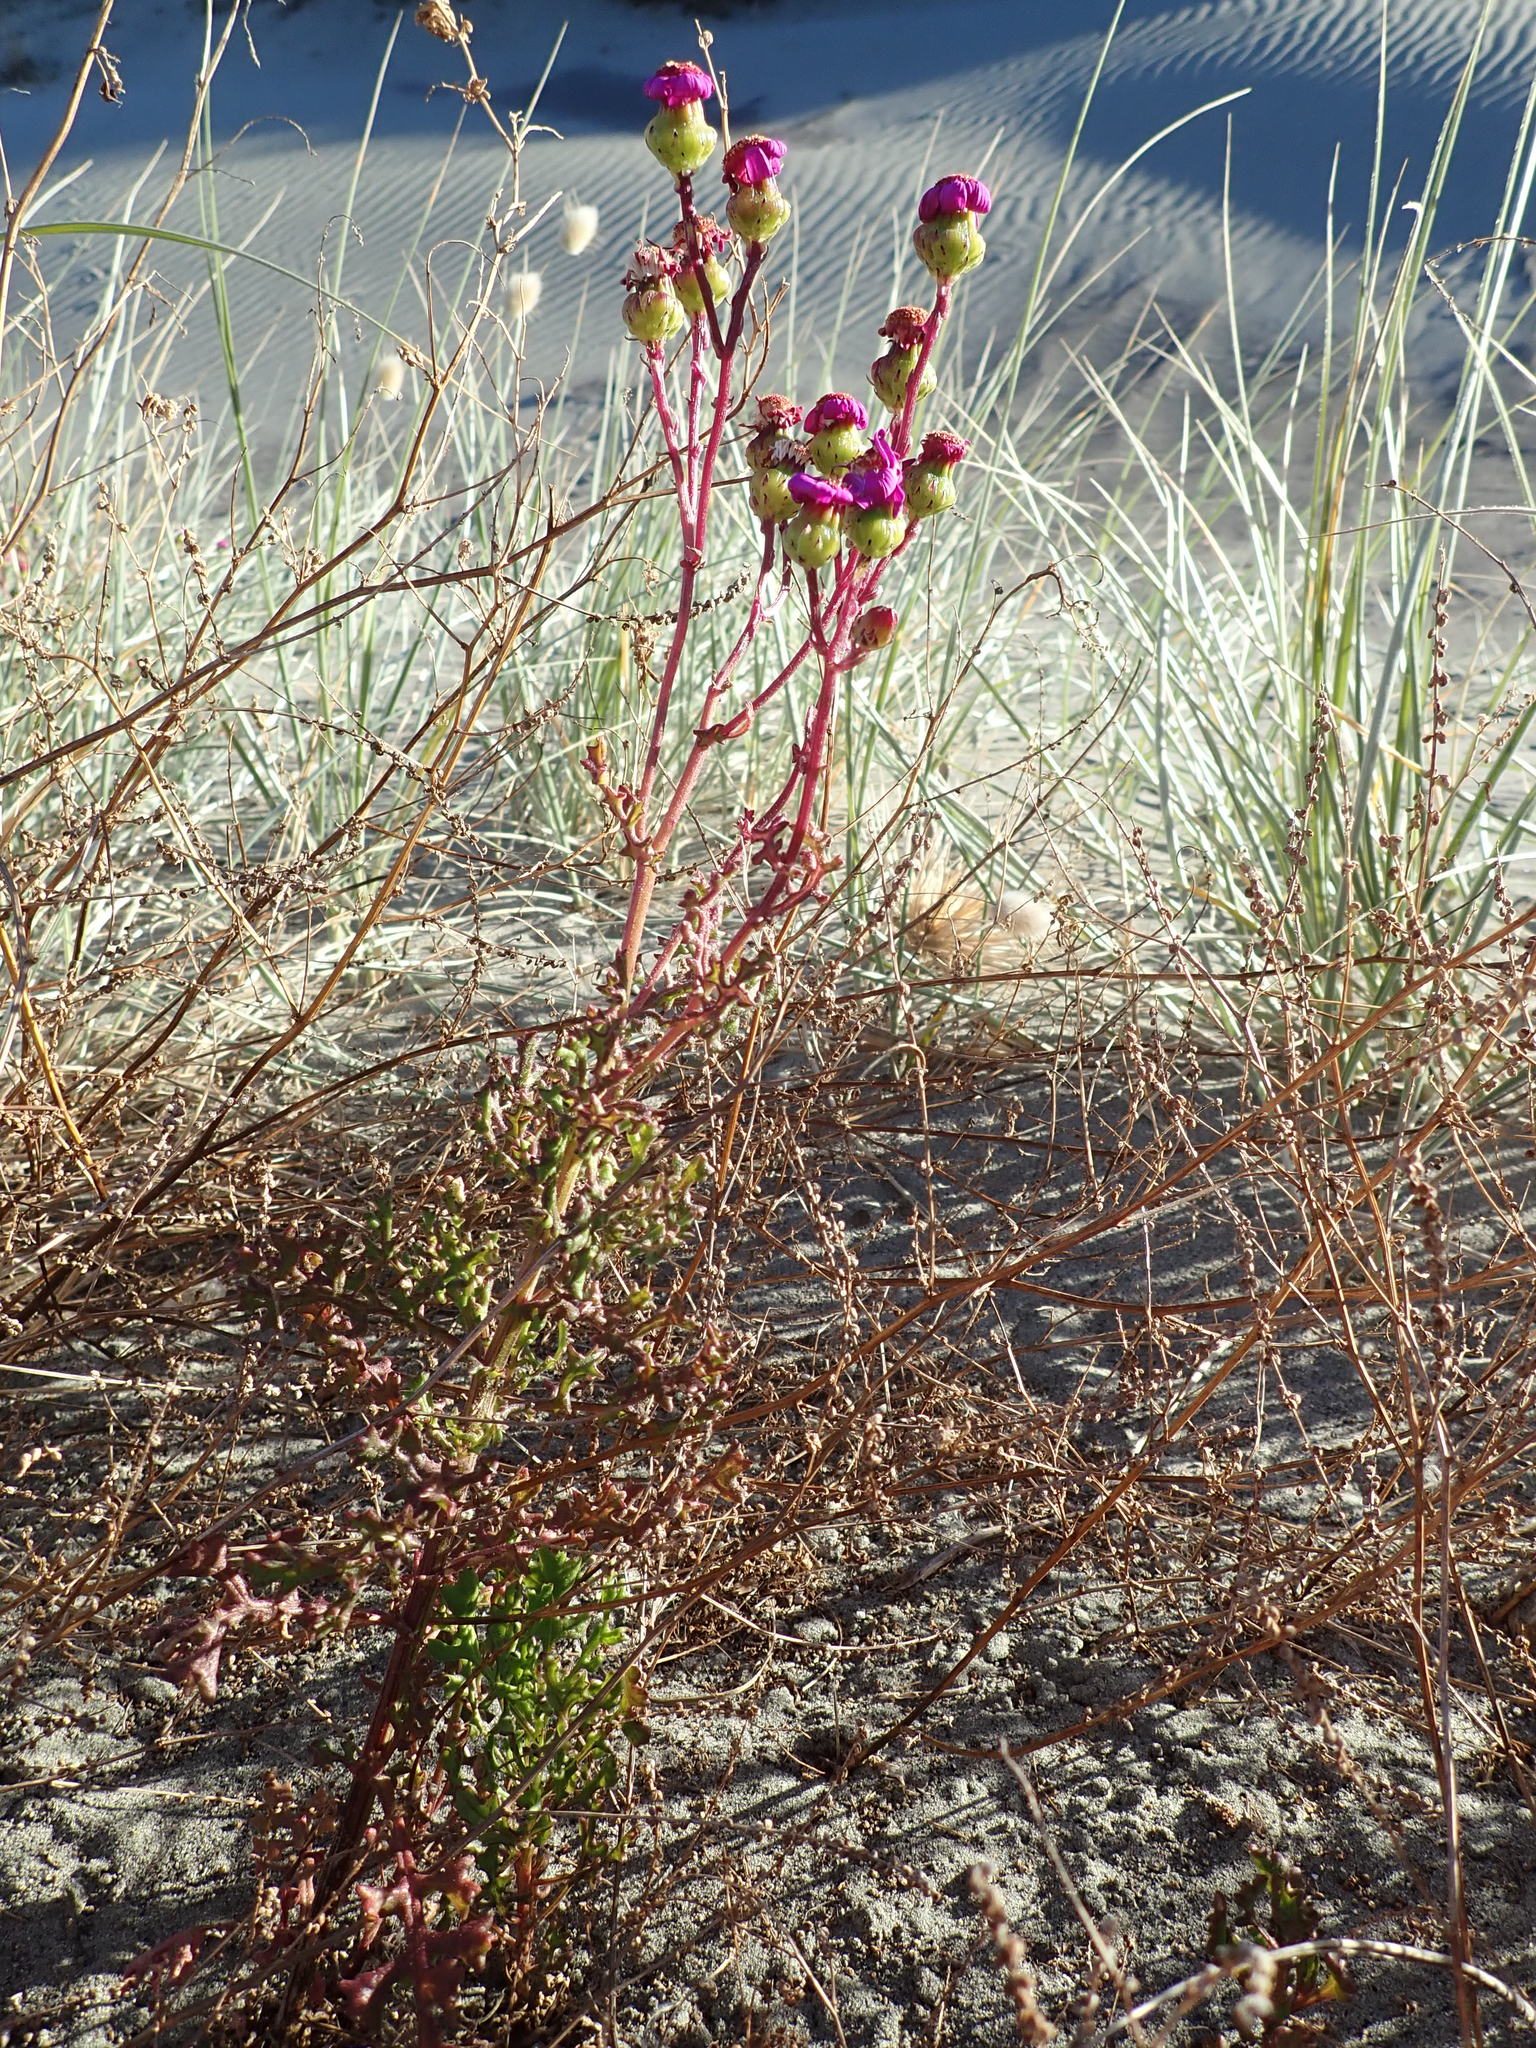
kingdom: Plantae
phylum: Tracheophyta
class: Magnoliopsida
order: Asterales
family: Asteraceae
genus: Senecio
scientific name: Senecio elegans
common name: Purple groundsel
